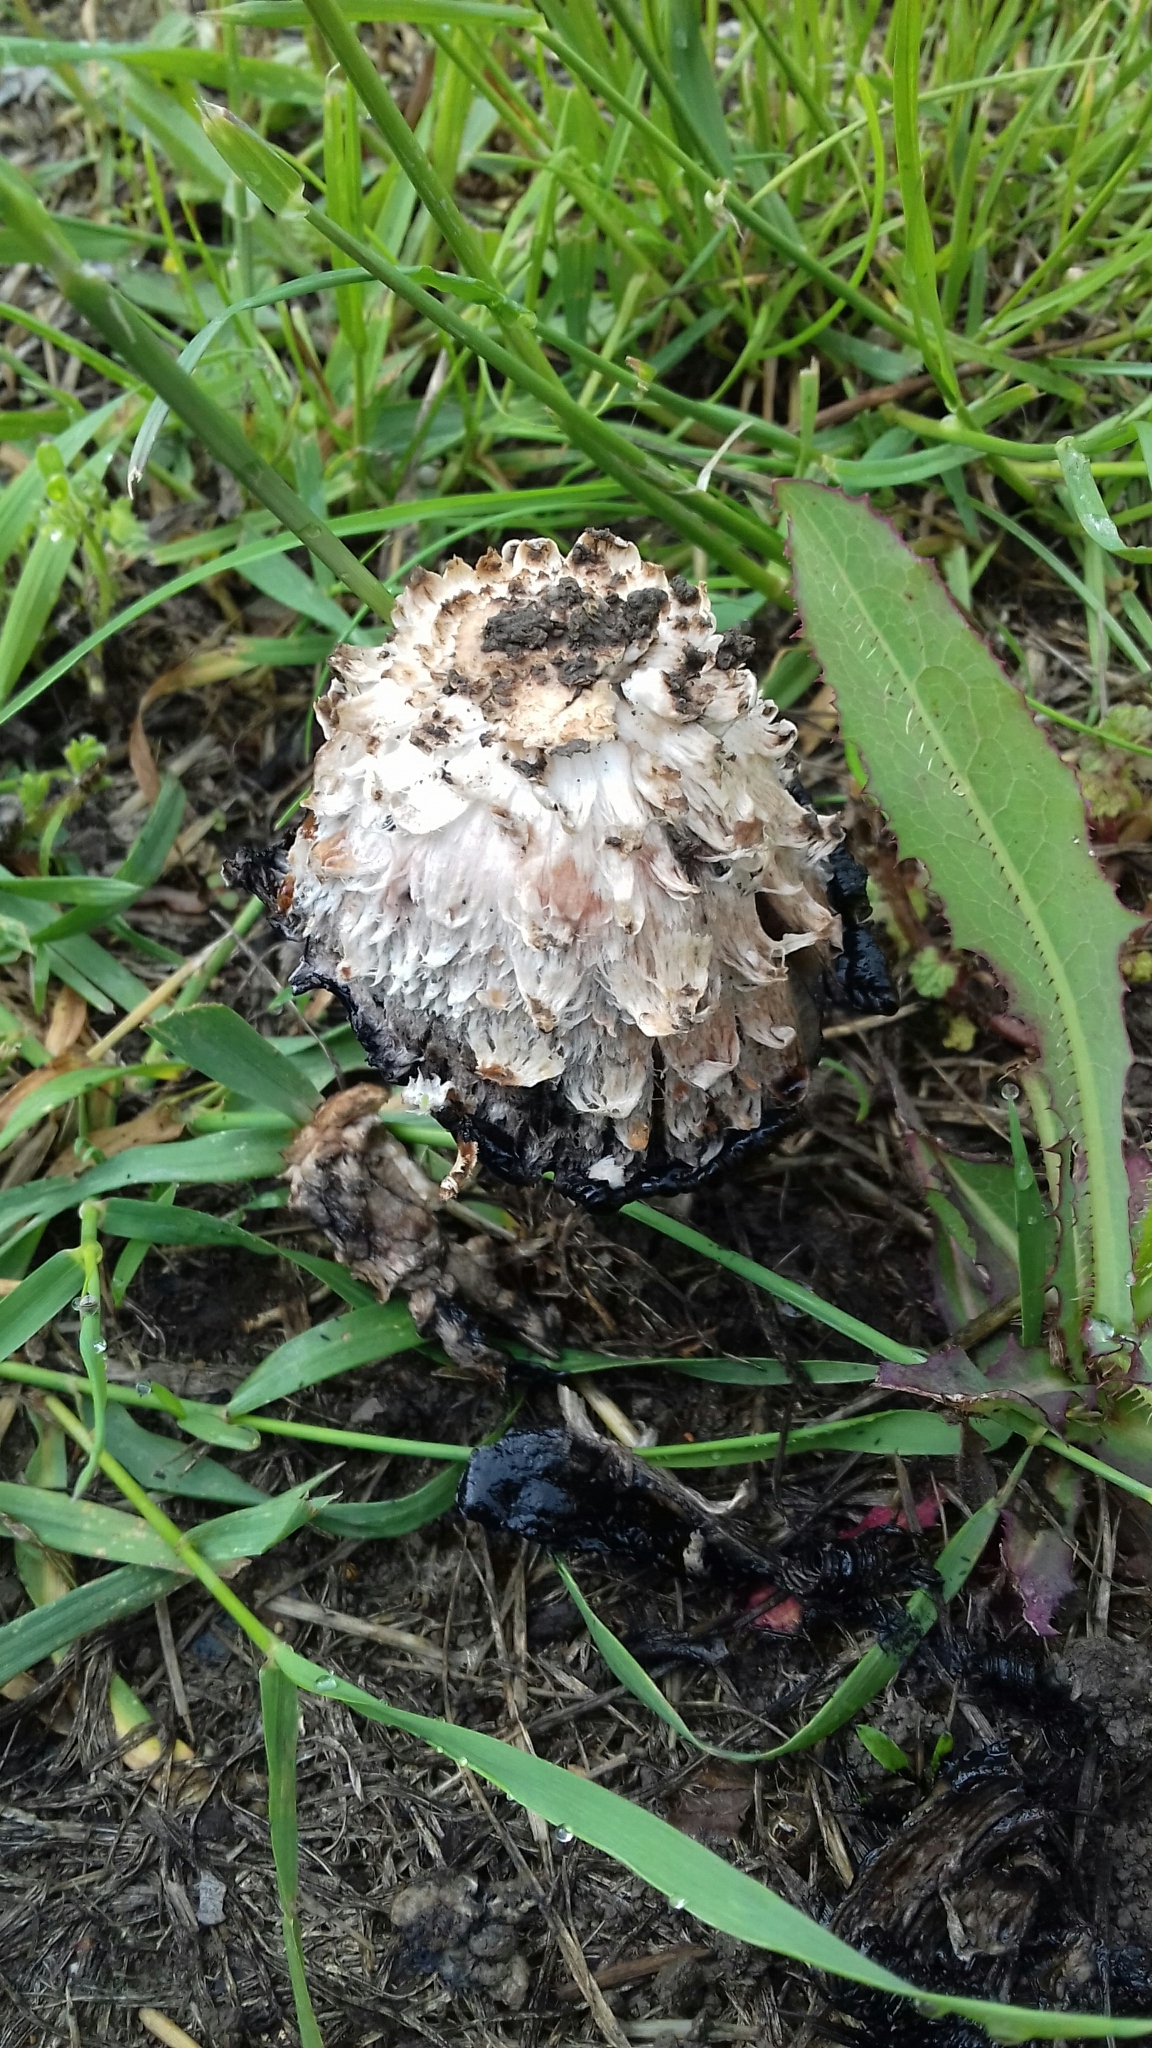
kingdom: Fungi
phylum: Basidiomycota
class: Agaricomycetes
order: Agaricales
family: Agaricaceae
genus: Coprinus
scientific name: Coprinus comatus
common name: Lawyer's wig
